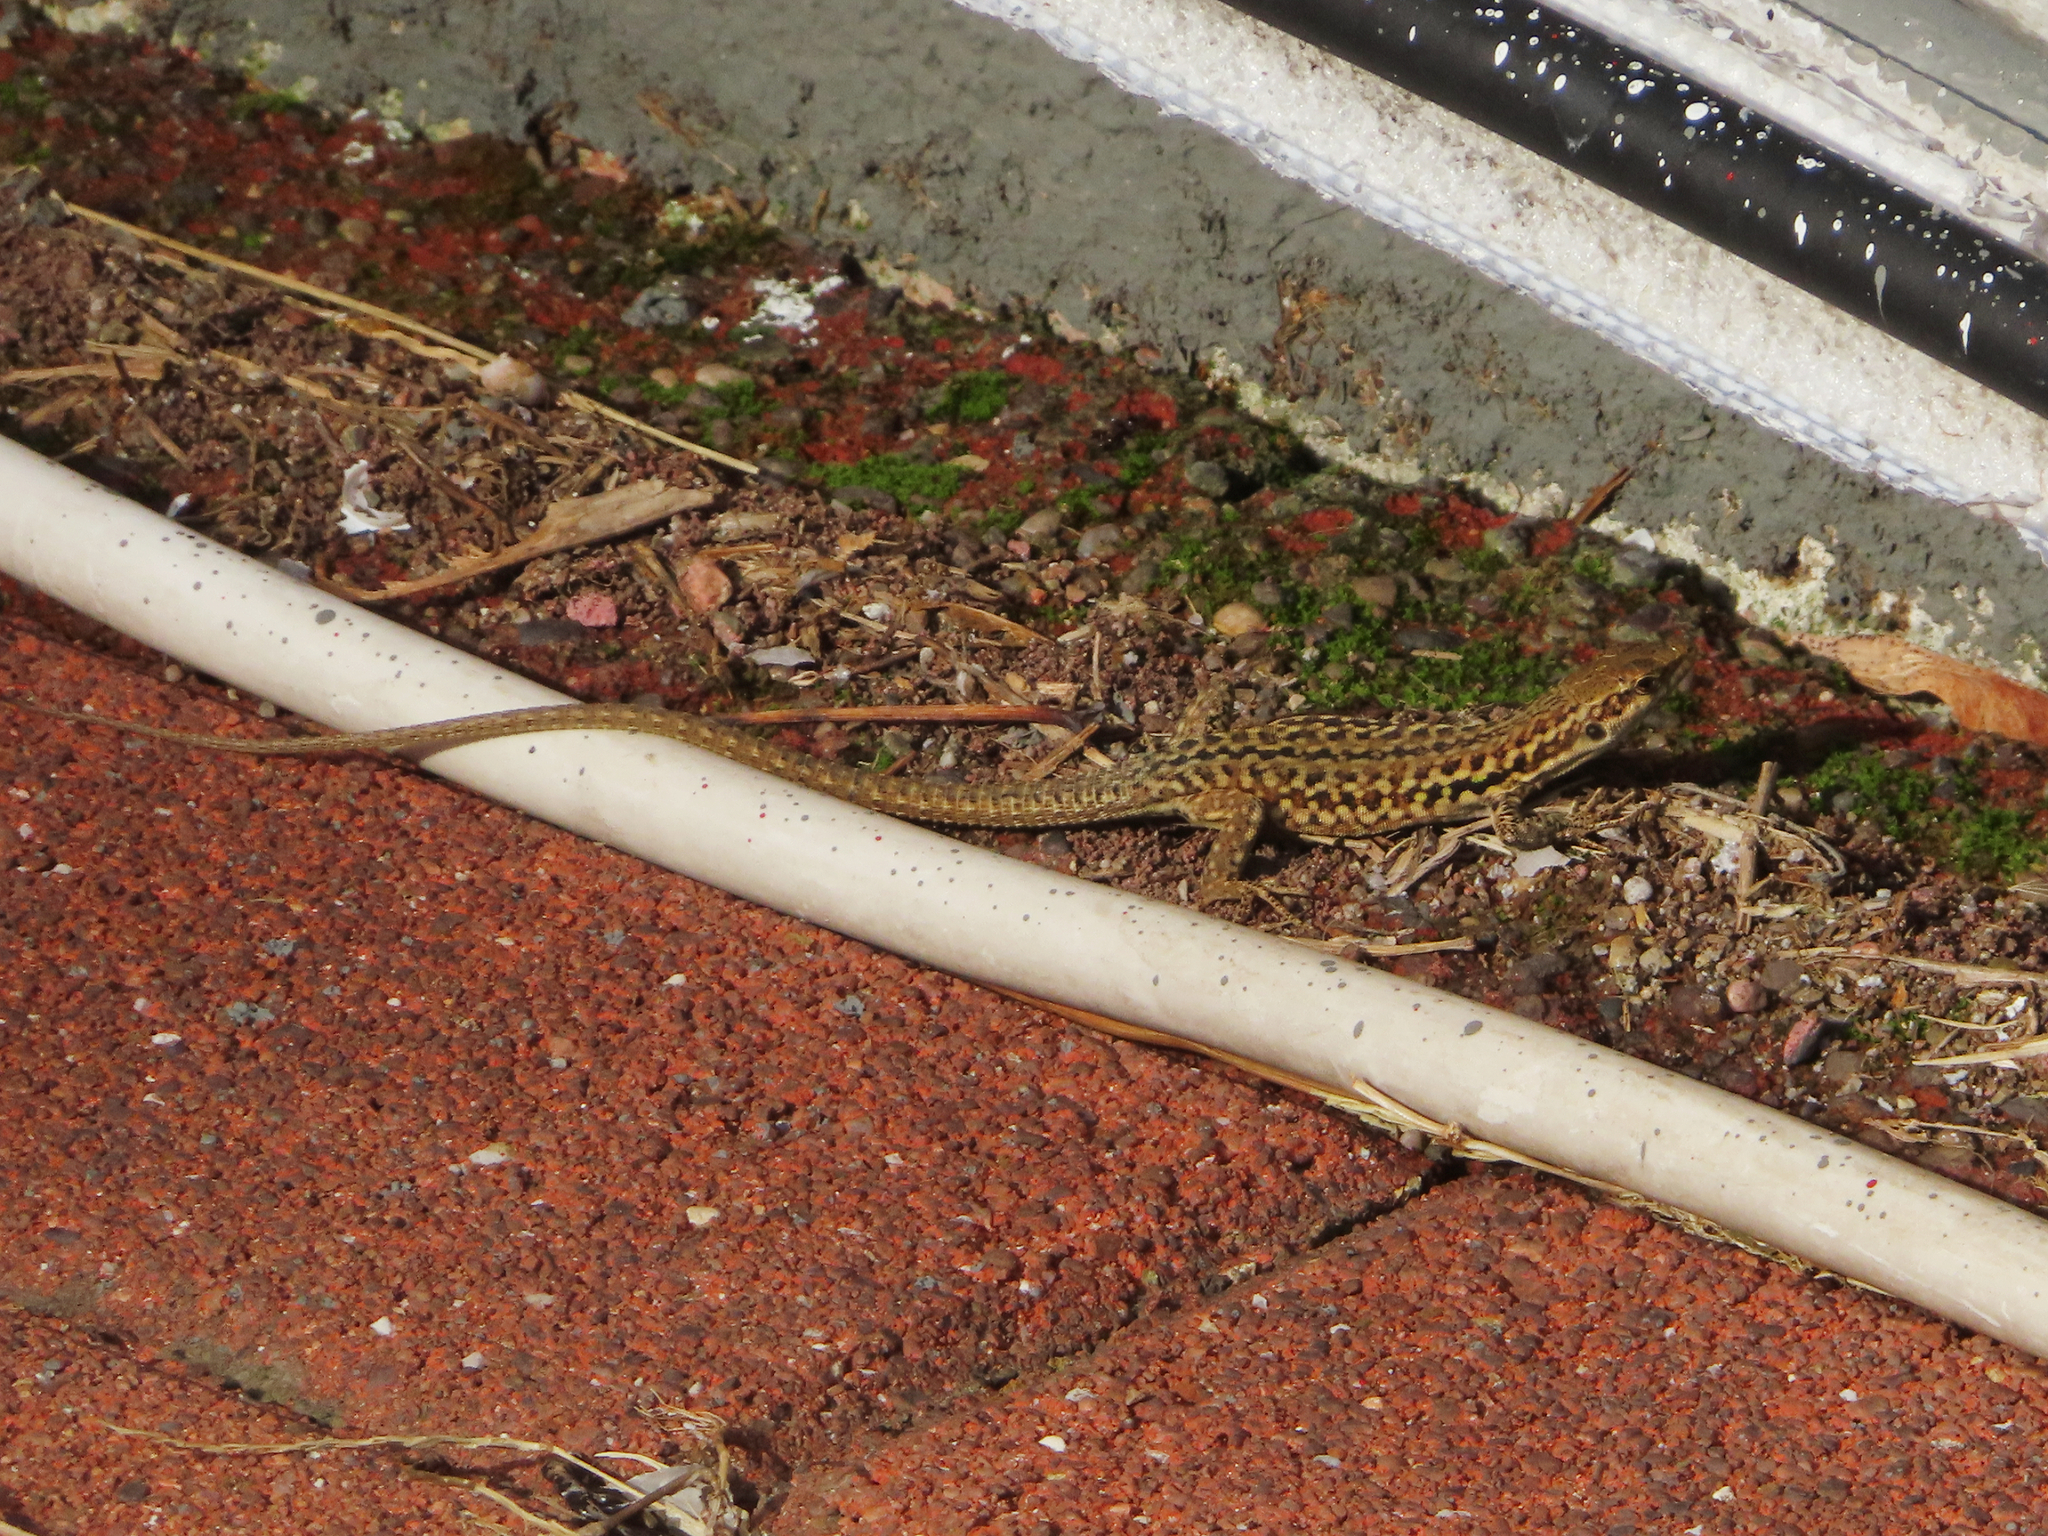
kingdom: Animalia
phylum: Chordata
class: Squamata
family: Lacertidae
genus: Podarcis
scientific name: Podarcis siculus
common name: Italian wall lizard
